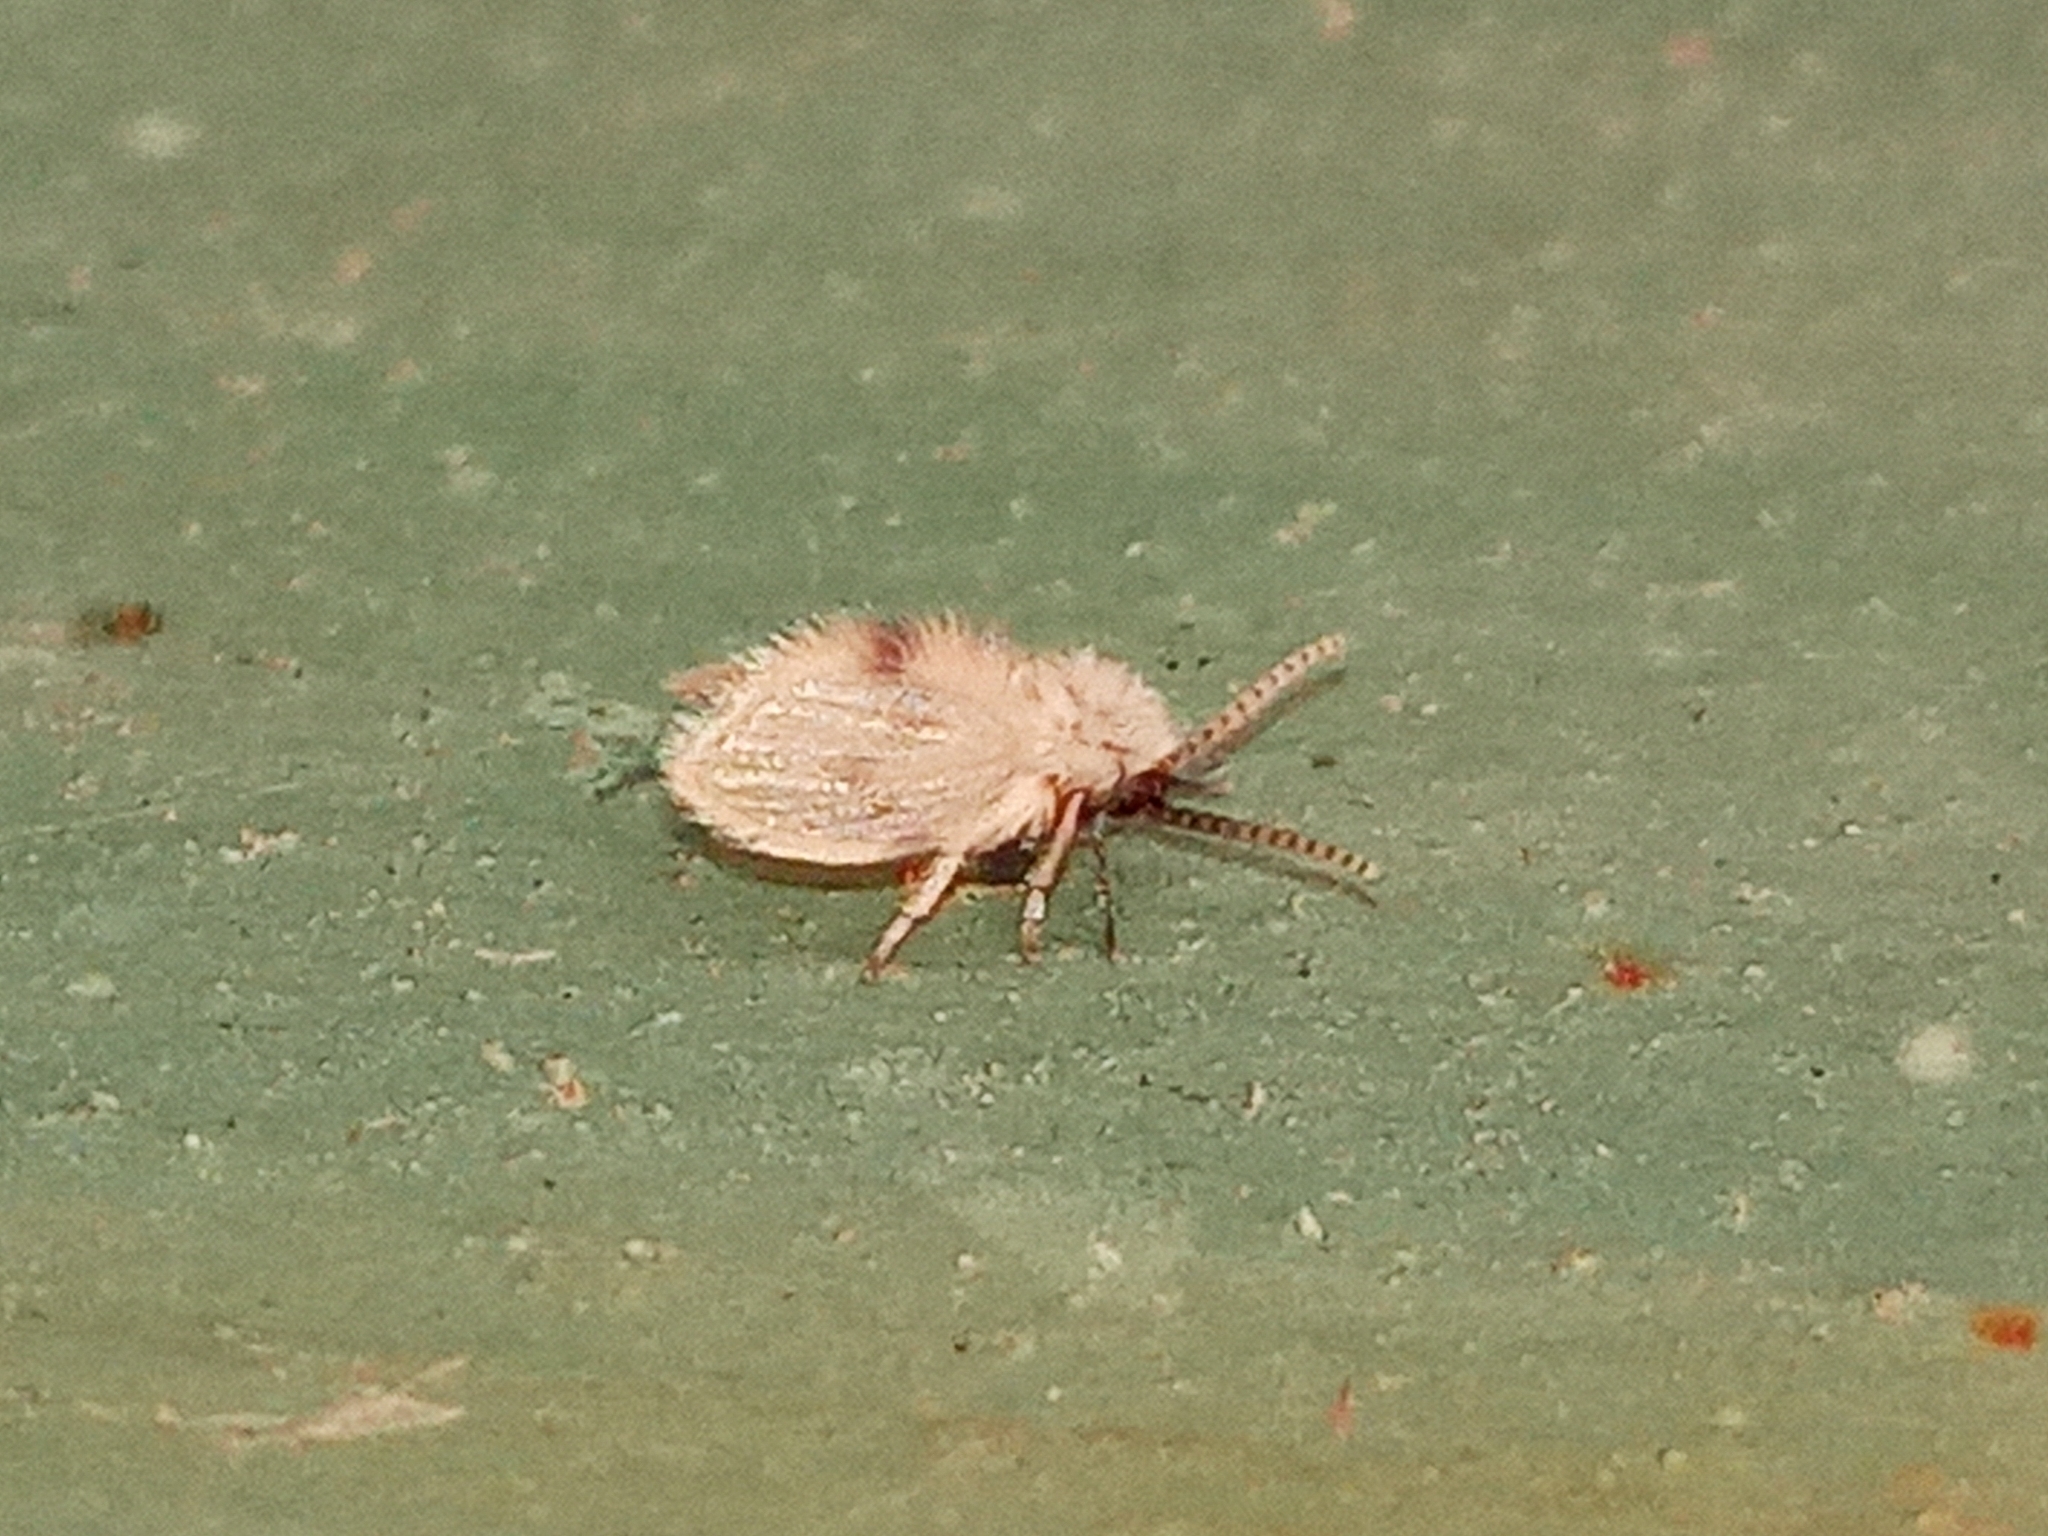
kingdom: Animalia
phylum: Arthropoda
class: Insecta
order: Diptera
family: Psychodidae
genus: Psychoda
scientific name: Psychoda sigma
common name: Moth fly
